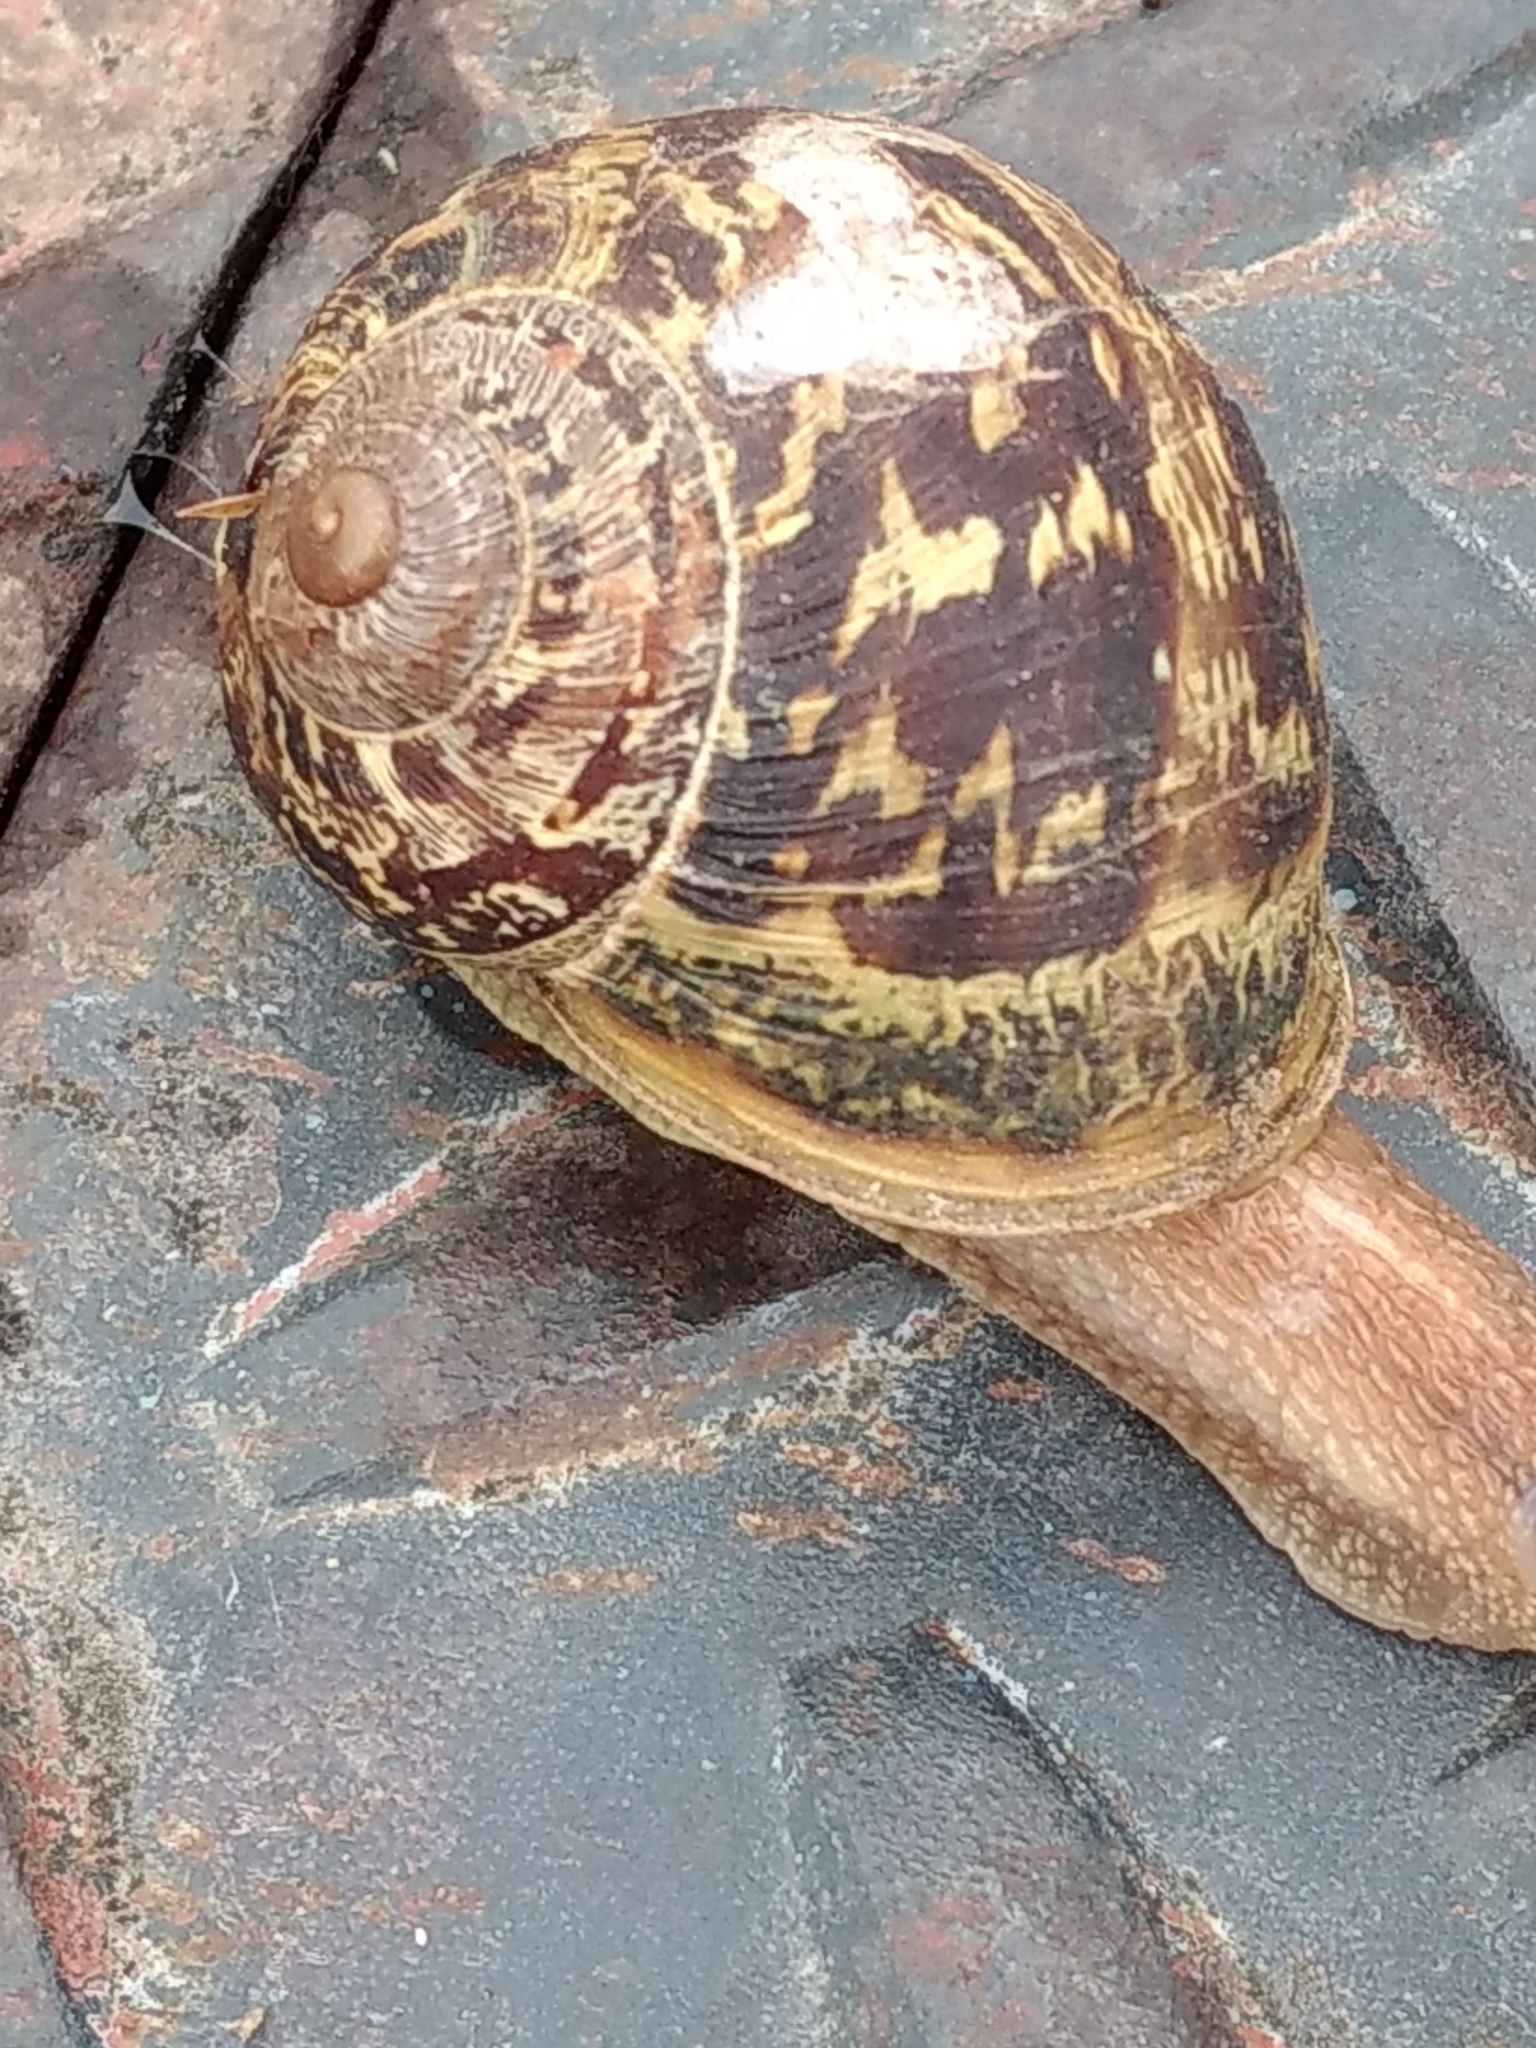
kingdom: Animalia
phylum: Mollusca
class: Gastropoda
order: Stylommatophora
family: Helicidae
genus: Cornu
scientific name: Cornu aspersum
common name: Brown garden snail
